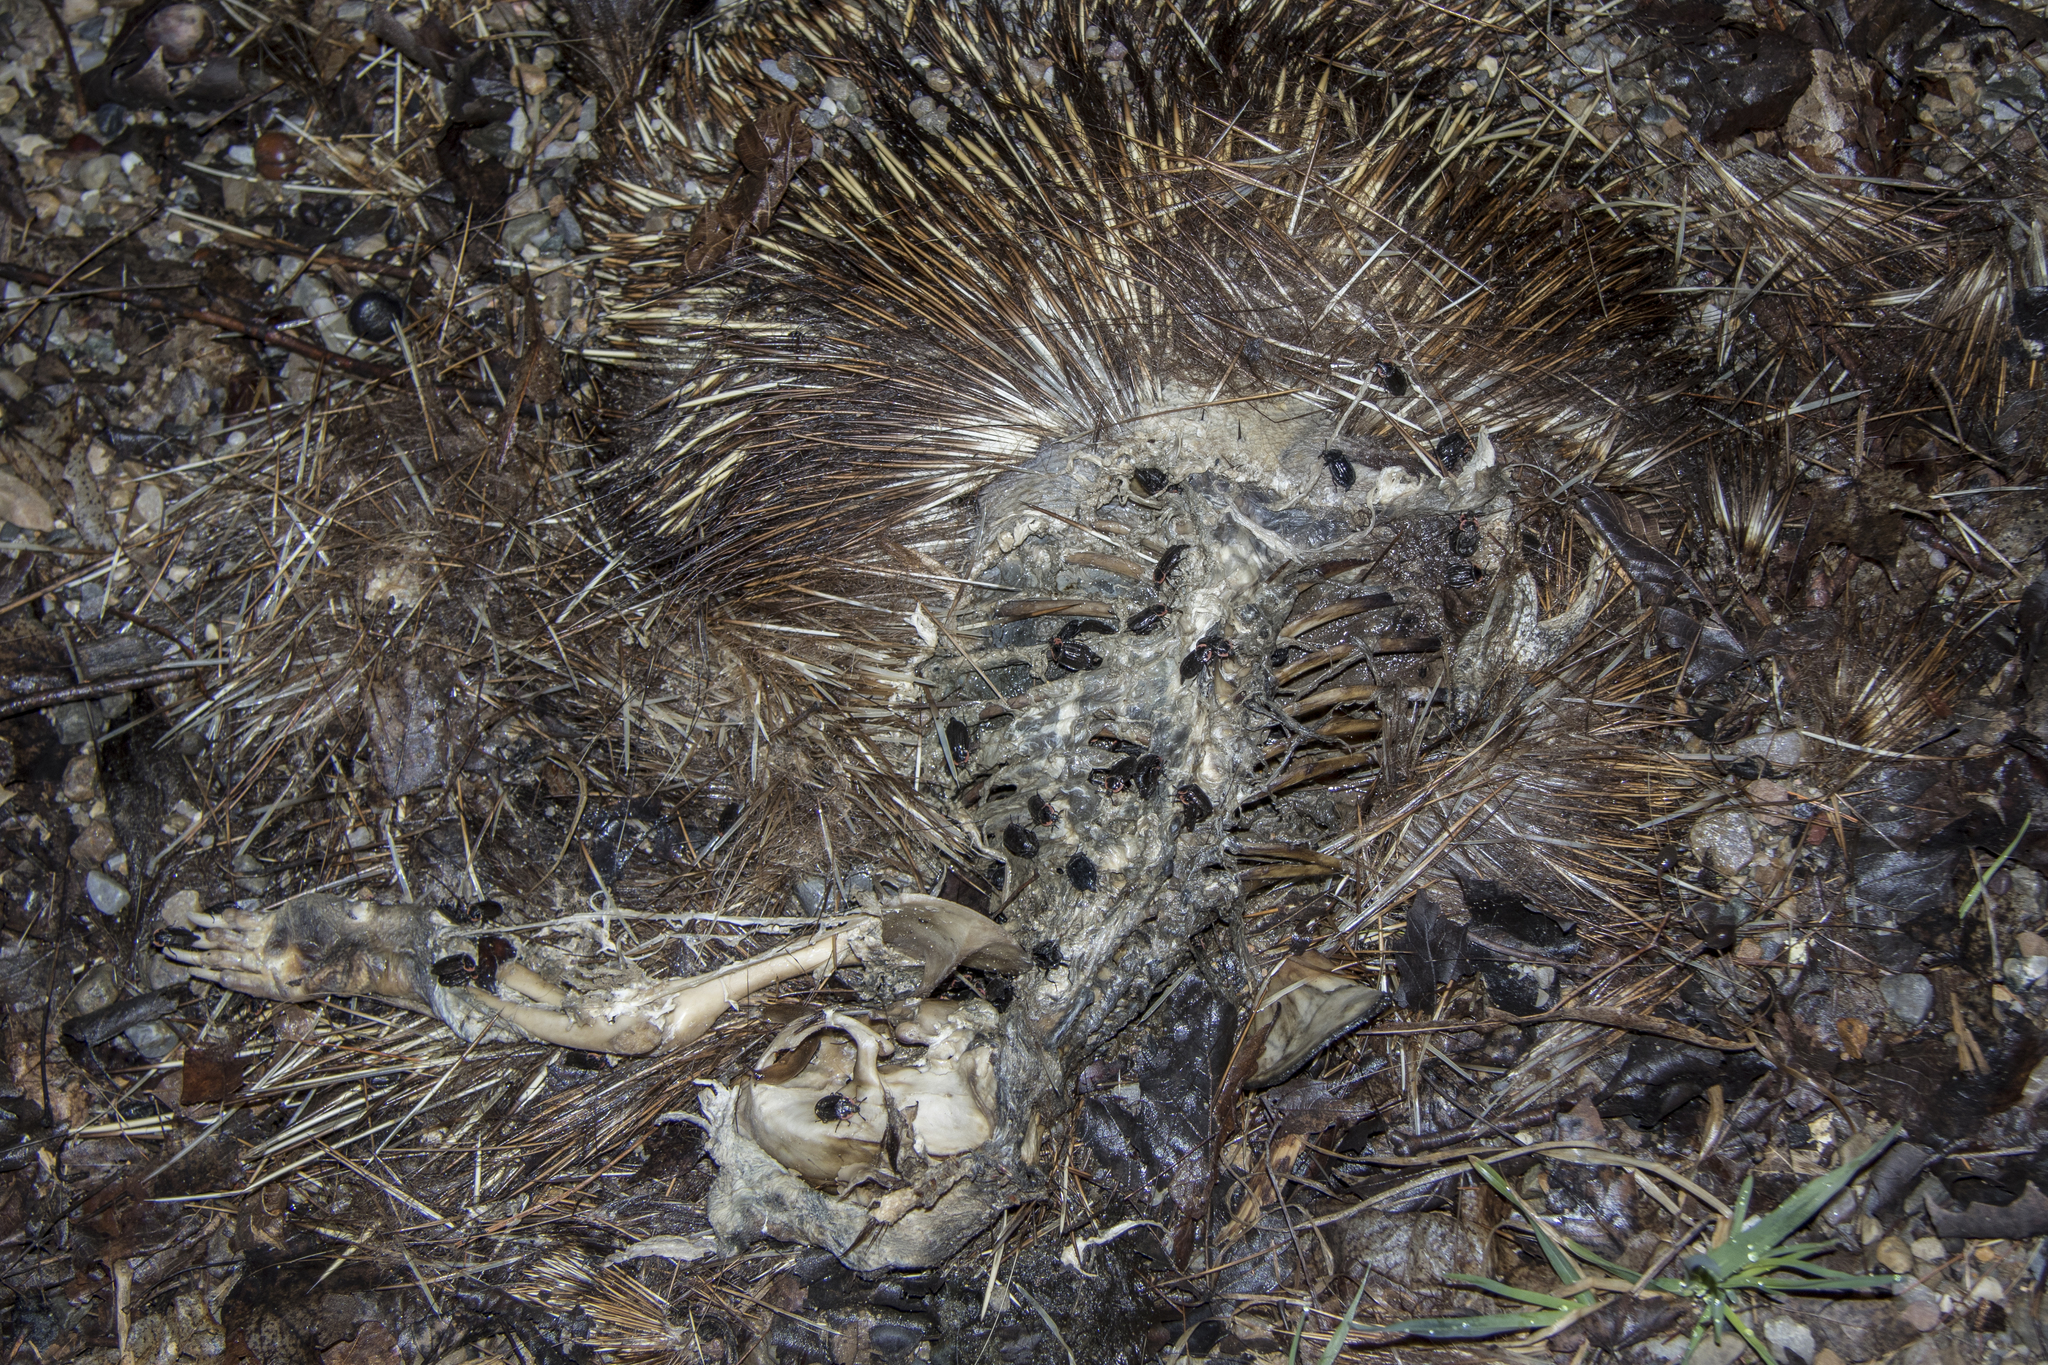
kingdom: Animalia
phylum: Arthropoda
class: Insecta
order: Coleoptera
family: Staphylinidae
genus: Oiceoptoma
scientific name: Oiceoptoma noveboracense
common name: Margined carrion beetle
